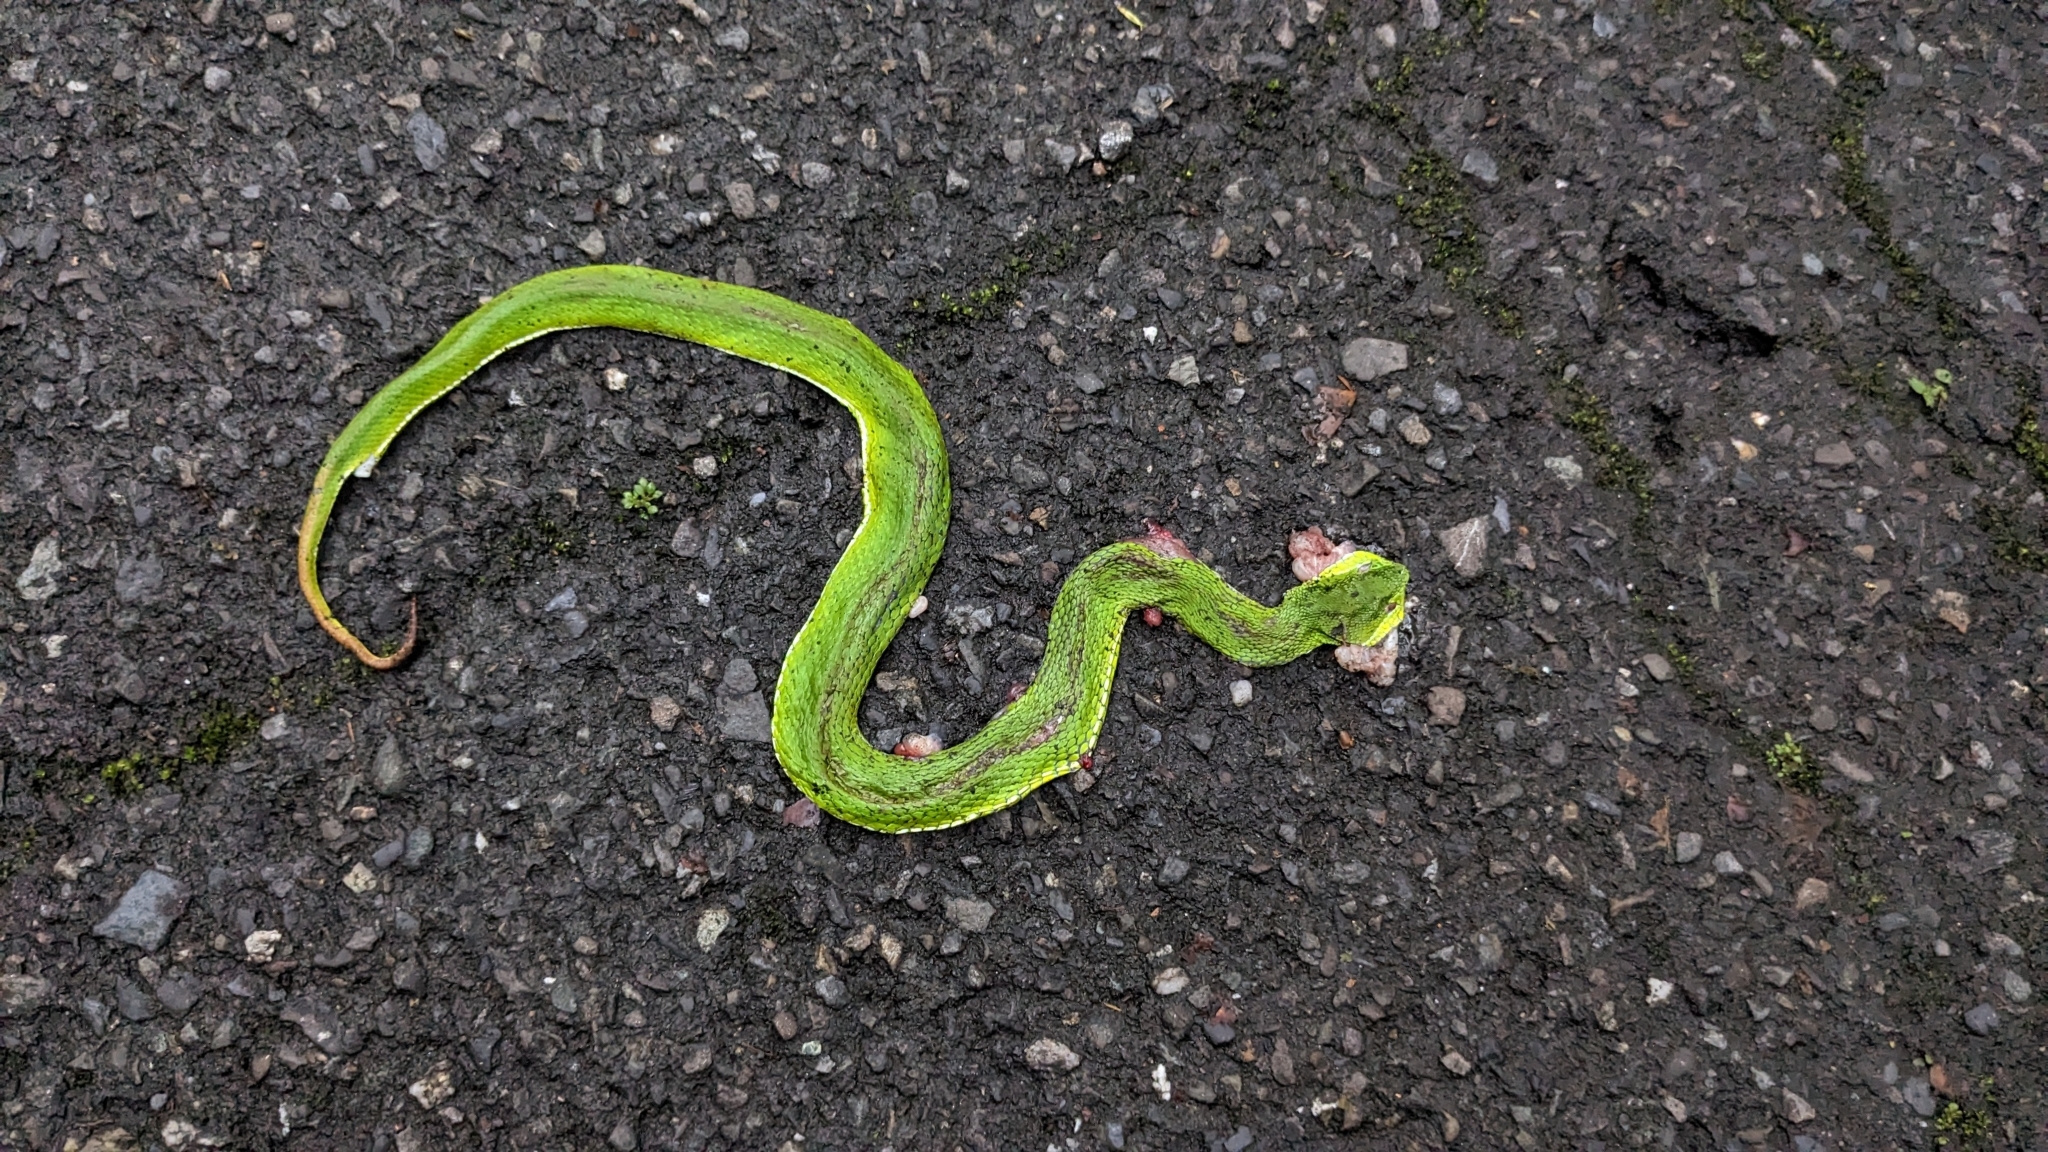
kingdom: Animalia
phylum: Chordata
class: Squamata
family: Viperidae
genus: Trimeresurus
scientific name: Trimeresurus stejnegeri
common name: Chen’s bamboo pit viper
